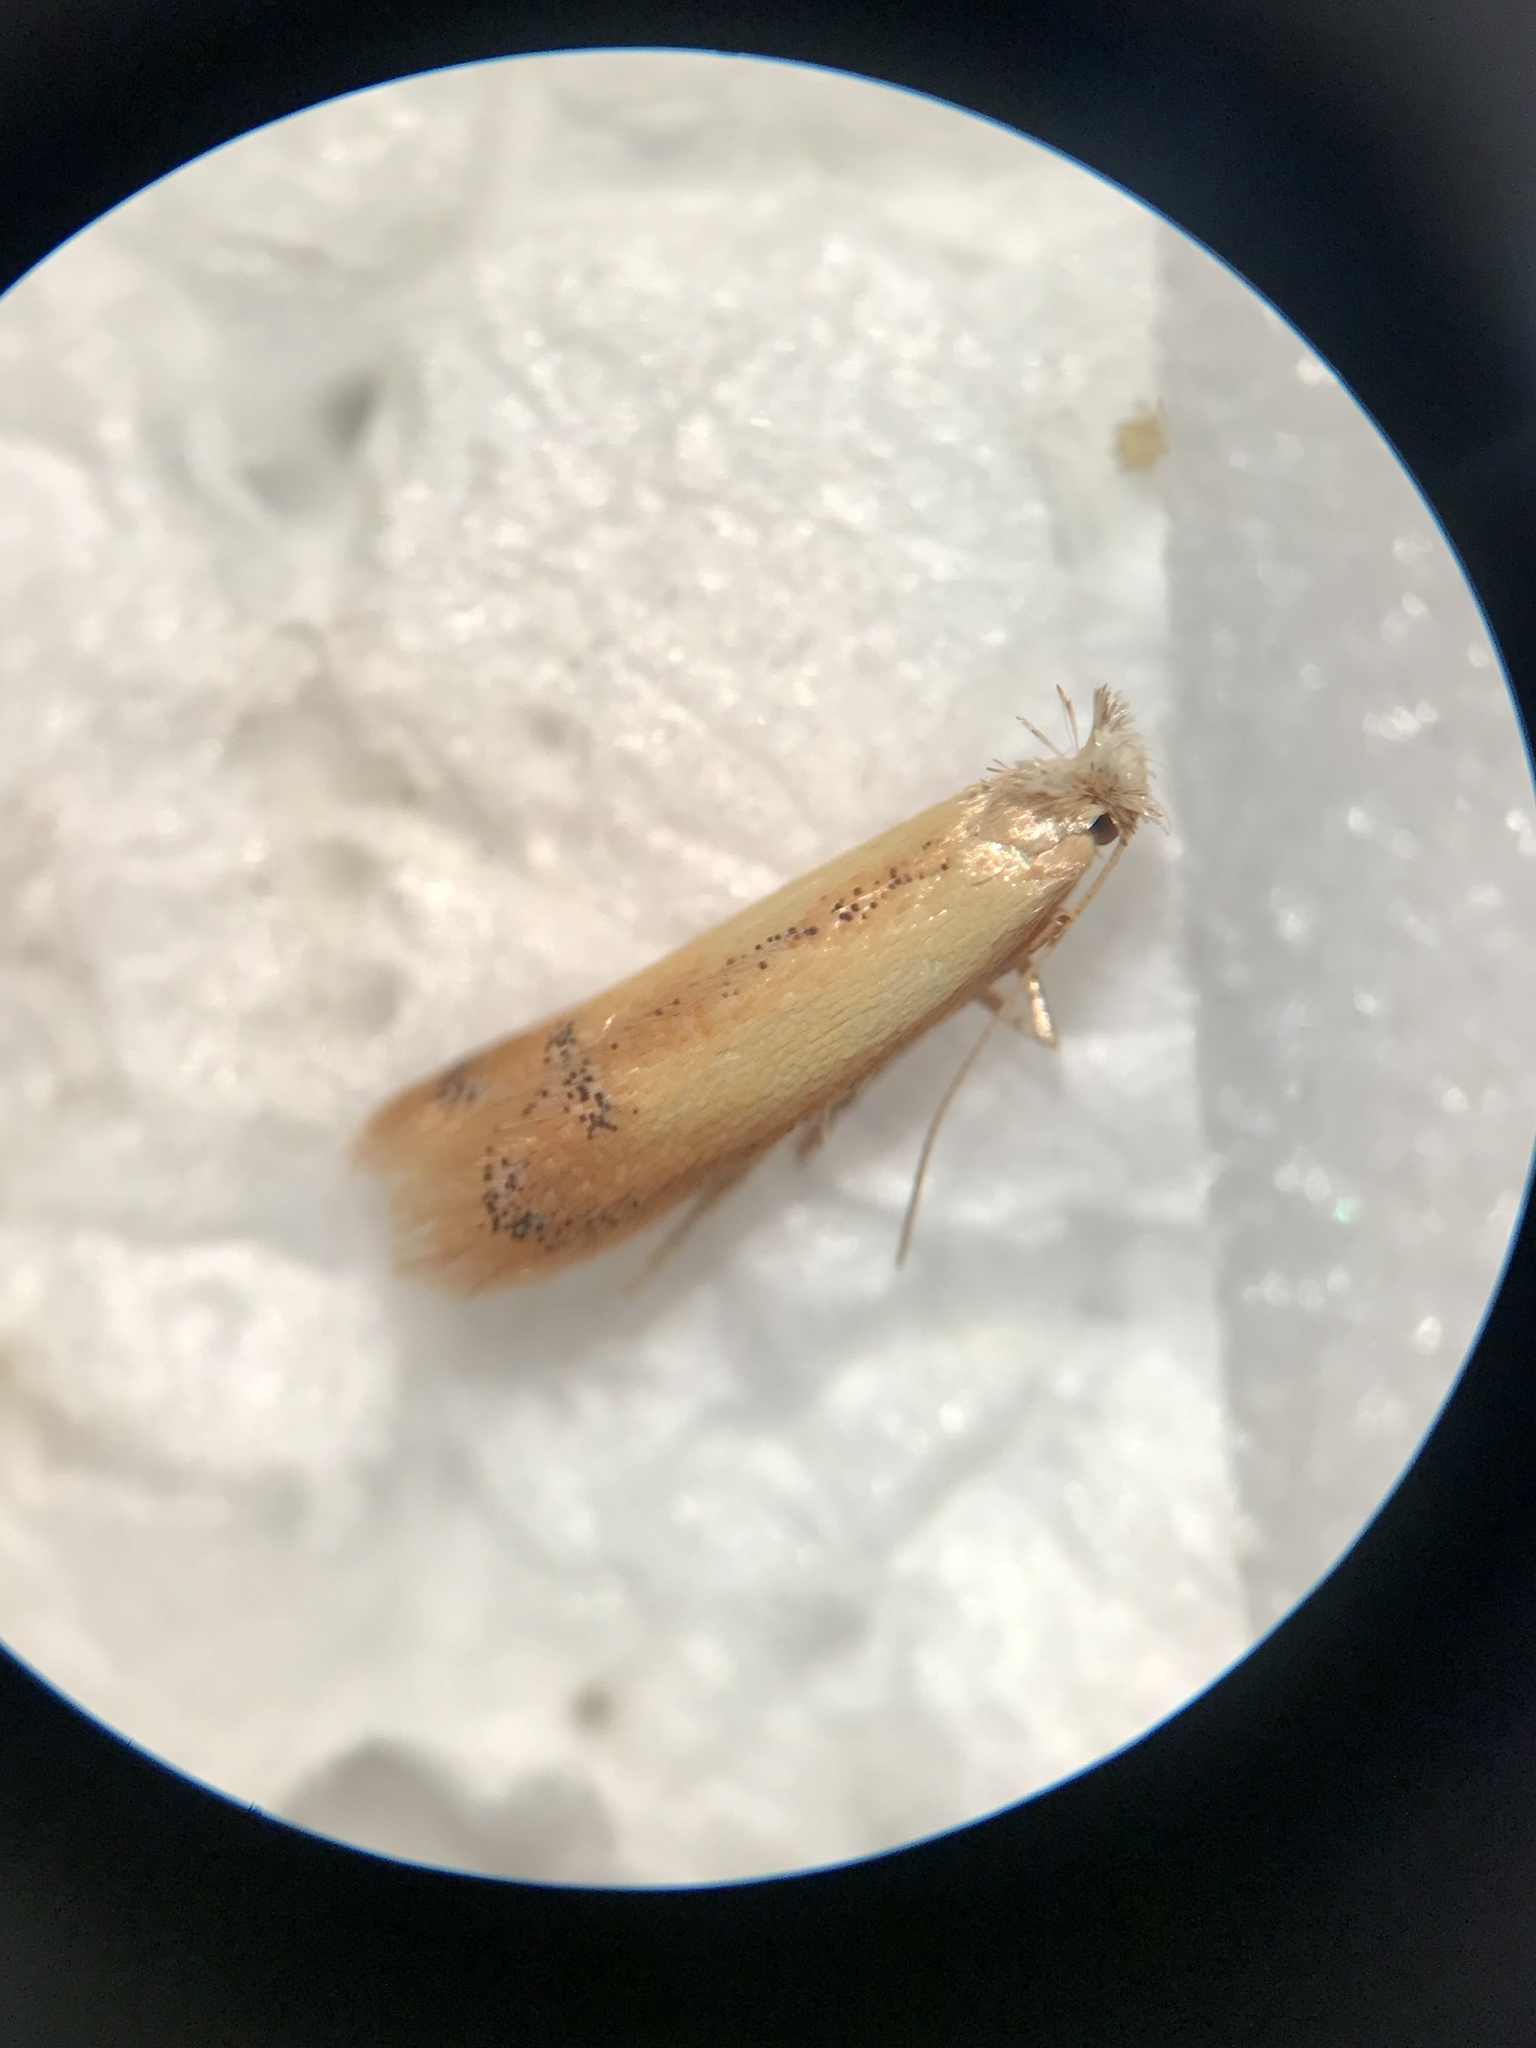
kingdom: Animalia
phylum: Arthropoda
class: Insecta
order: Lepidoptera
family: Tischeriidae
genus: Coptotriche
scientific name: Coptotriche badiiella
